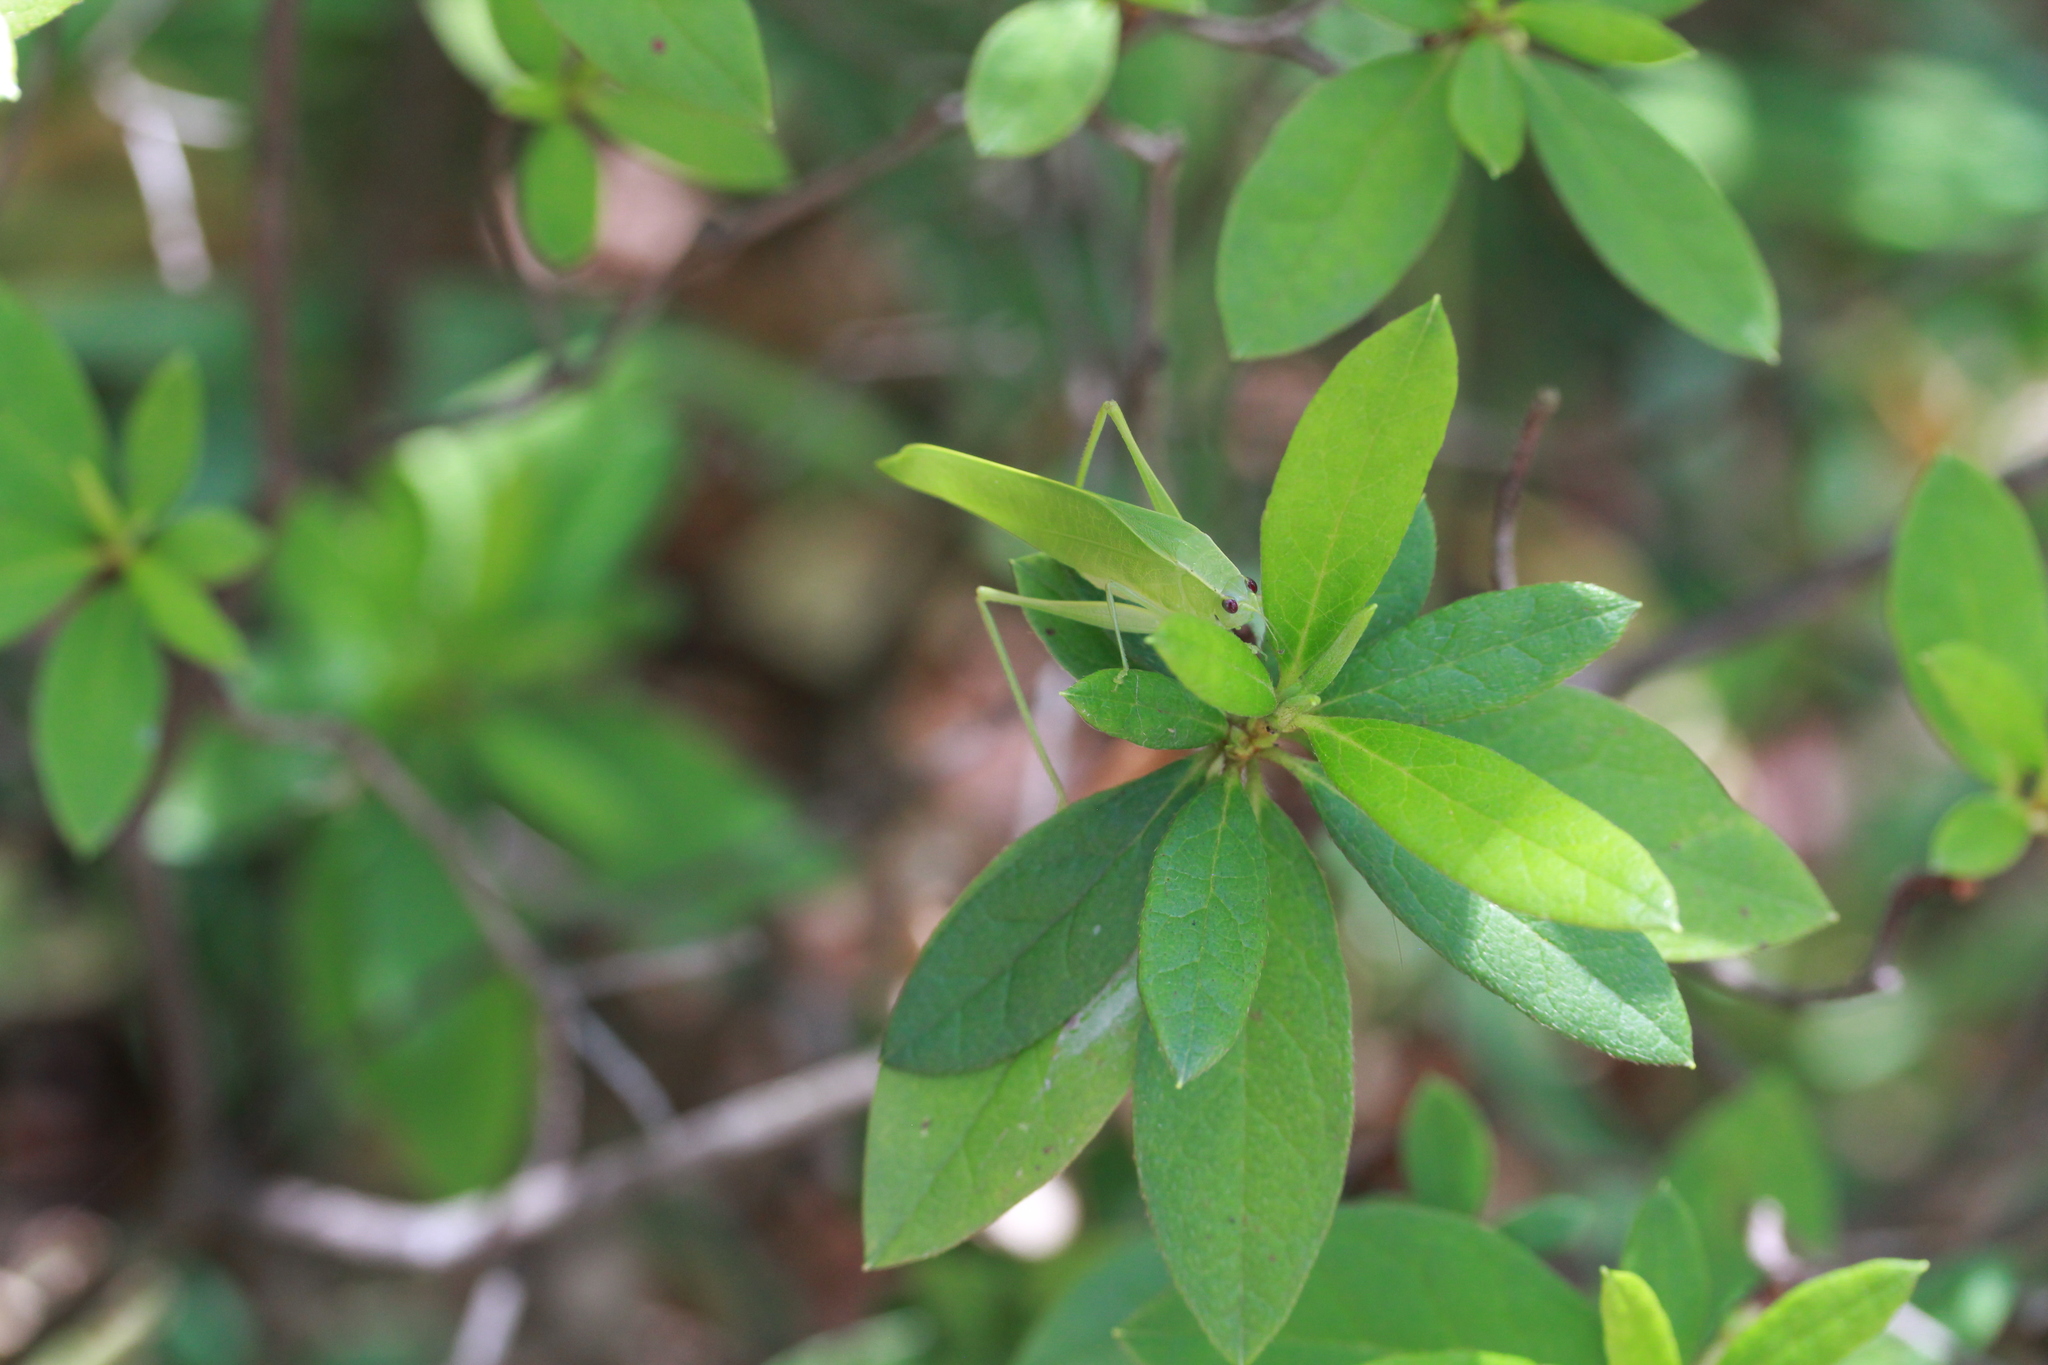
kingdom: Animalia
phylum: Arthropoda
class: Insecta
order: Orthoptera
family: Tettigoniidae
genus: Turpilia
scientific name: Turpilia rostrata
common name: Narrow-beaked katydid
